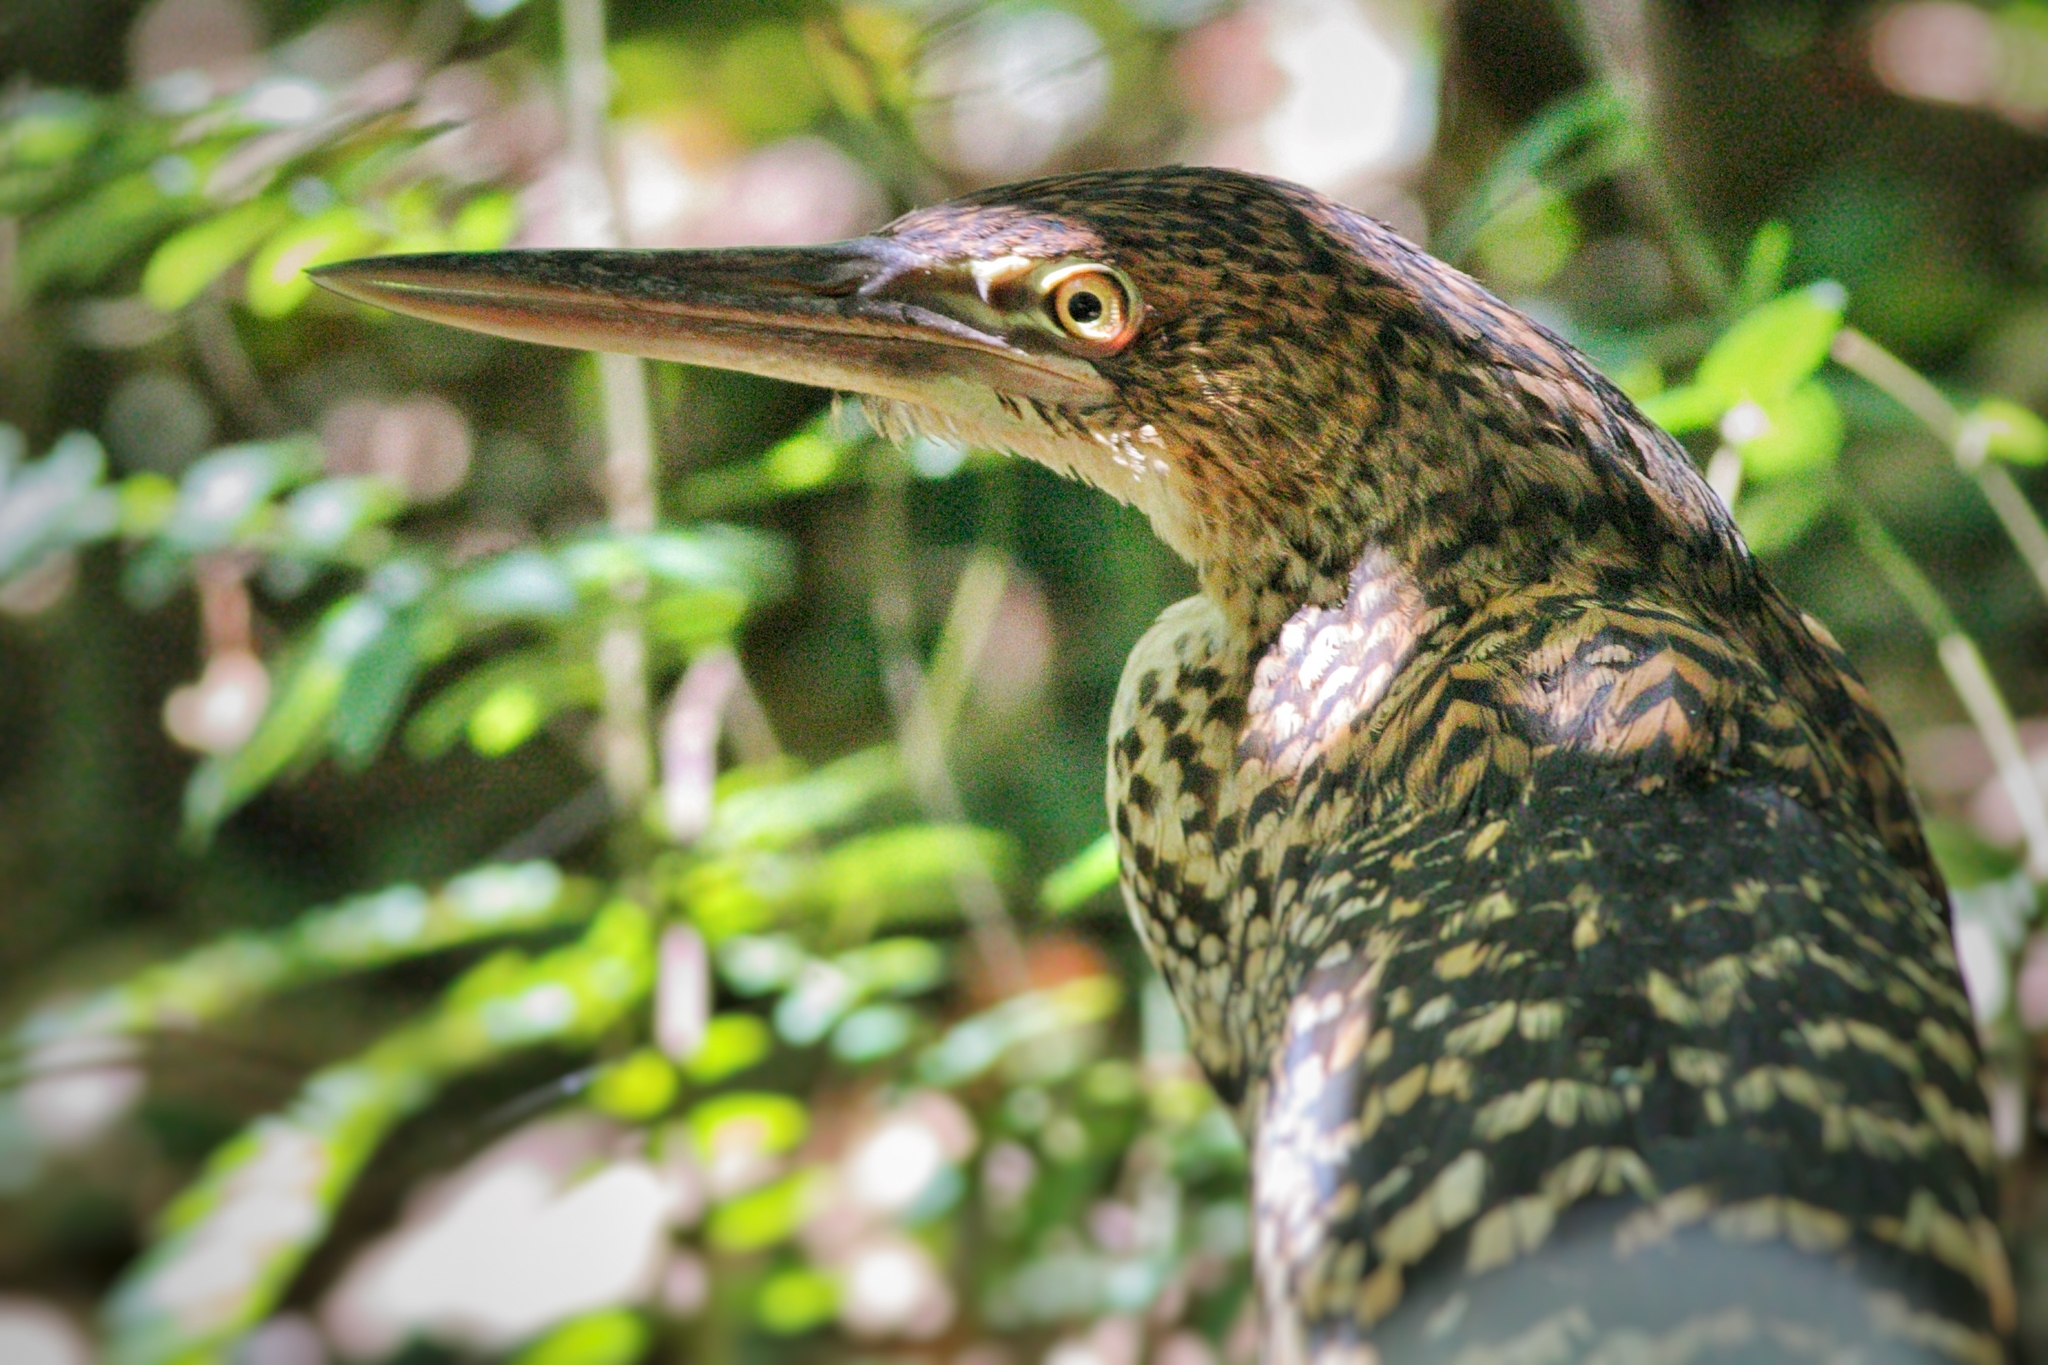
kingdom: Animalia
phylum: Chordata
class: Aves
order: Pelecaniformes
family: Ardeidae
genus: Tigrisoma
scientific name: Tigrisoma lineatum
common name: Rufescent tiger-heron
